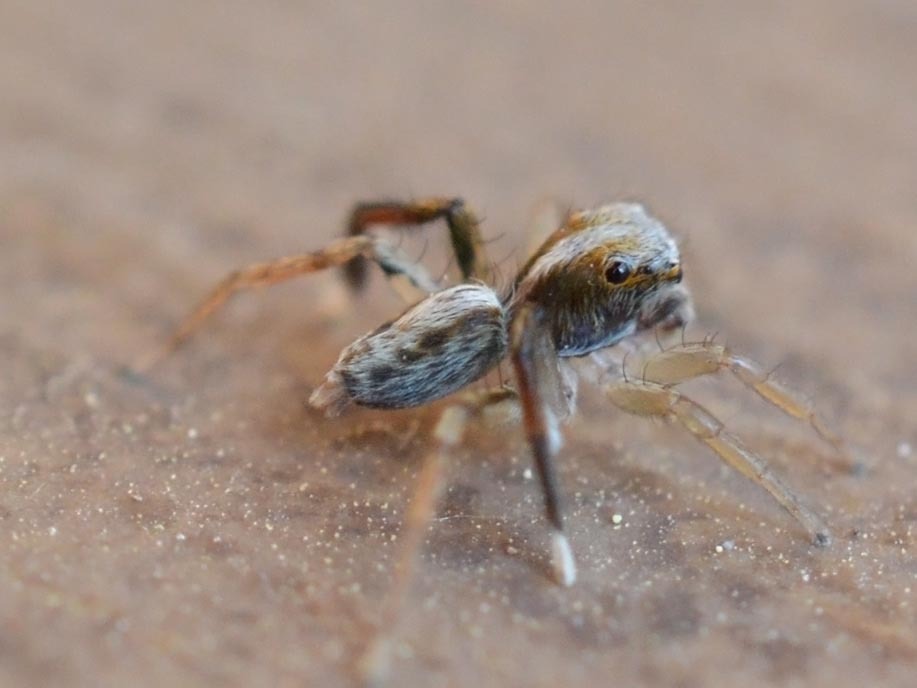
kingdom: Animalia
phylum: Arthropoda
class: Arachnida
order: Araneae
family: Salticidae
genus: Saitis
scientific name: Saitis tauricus
